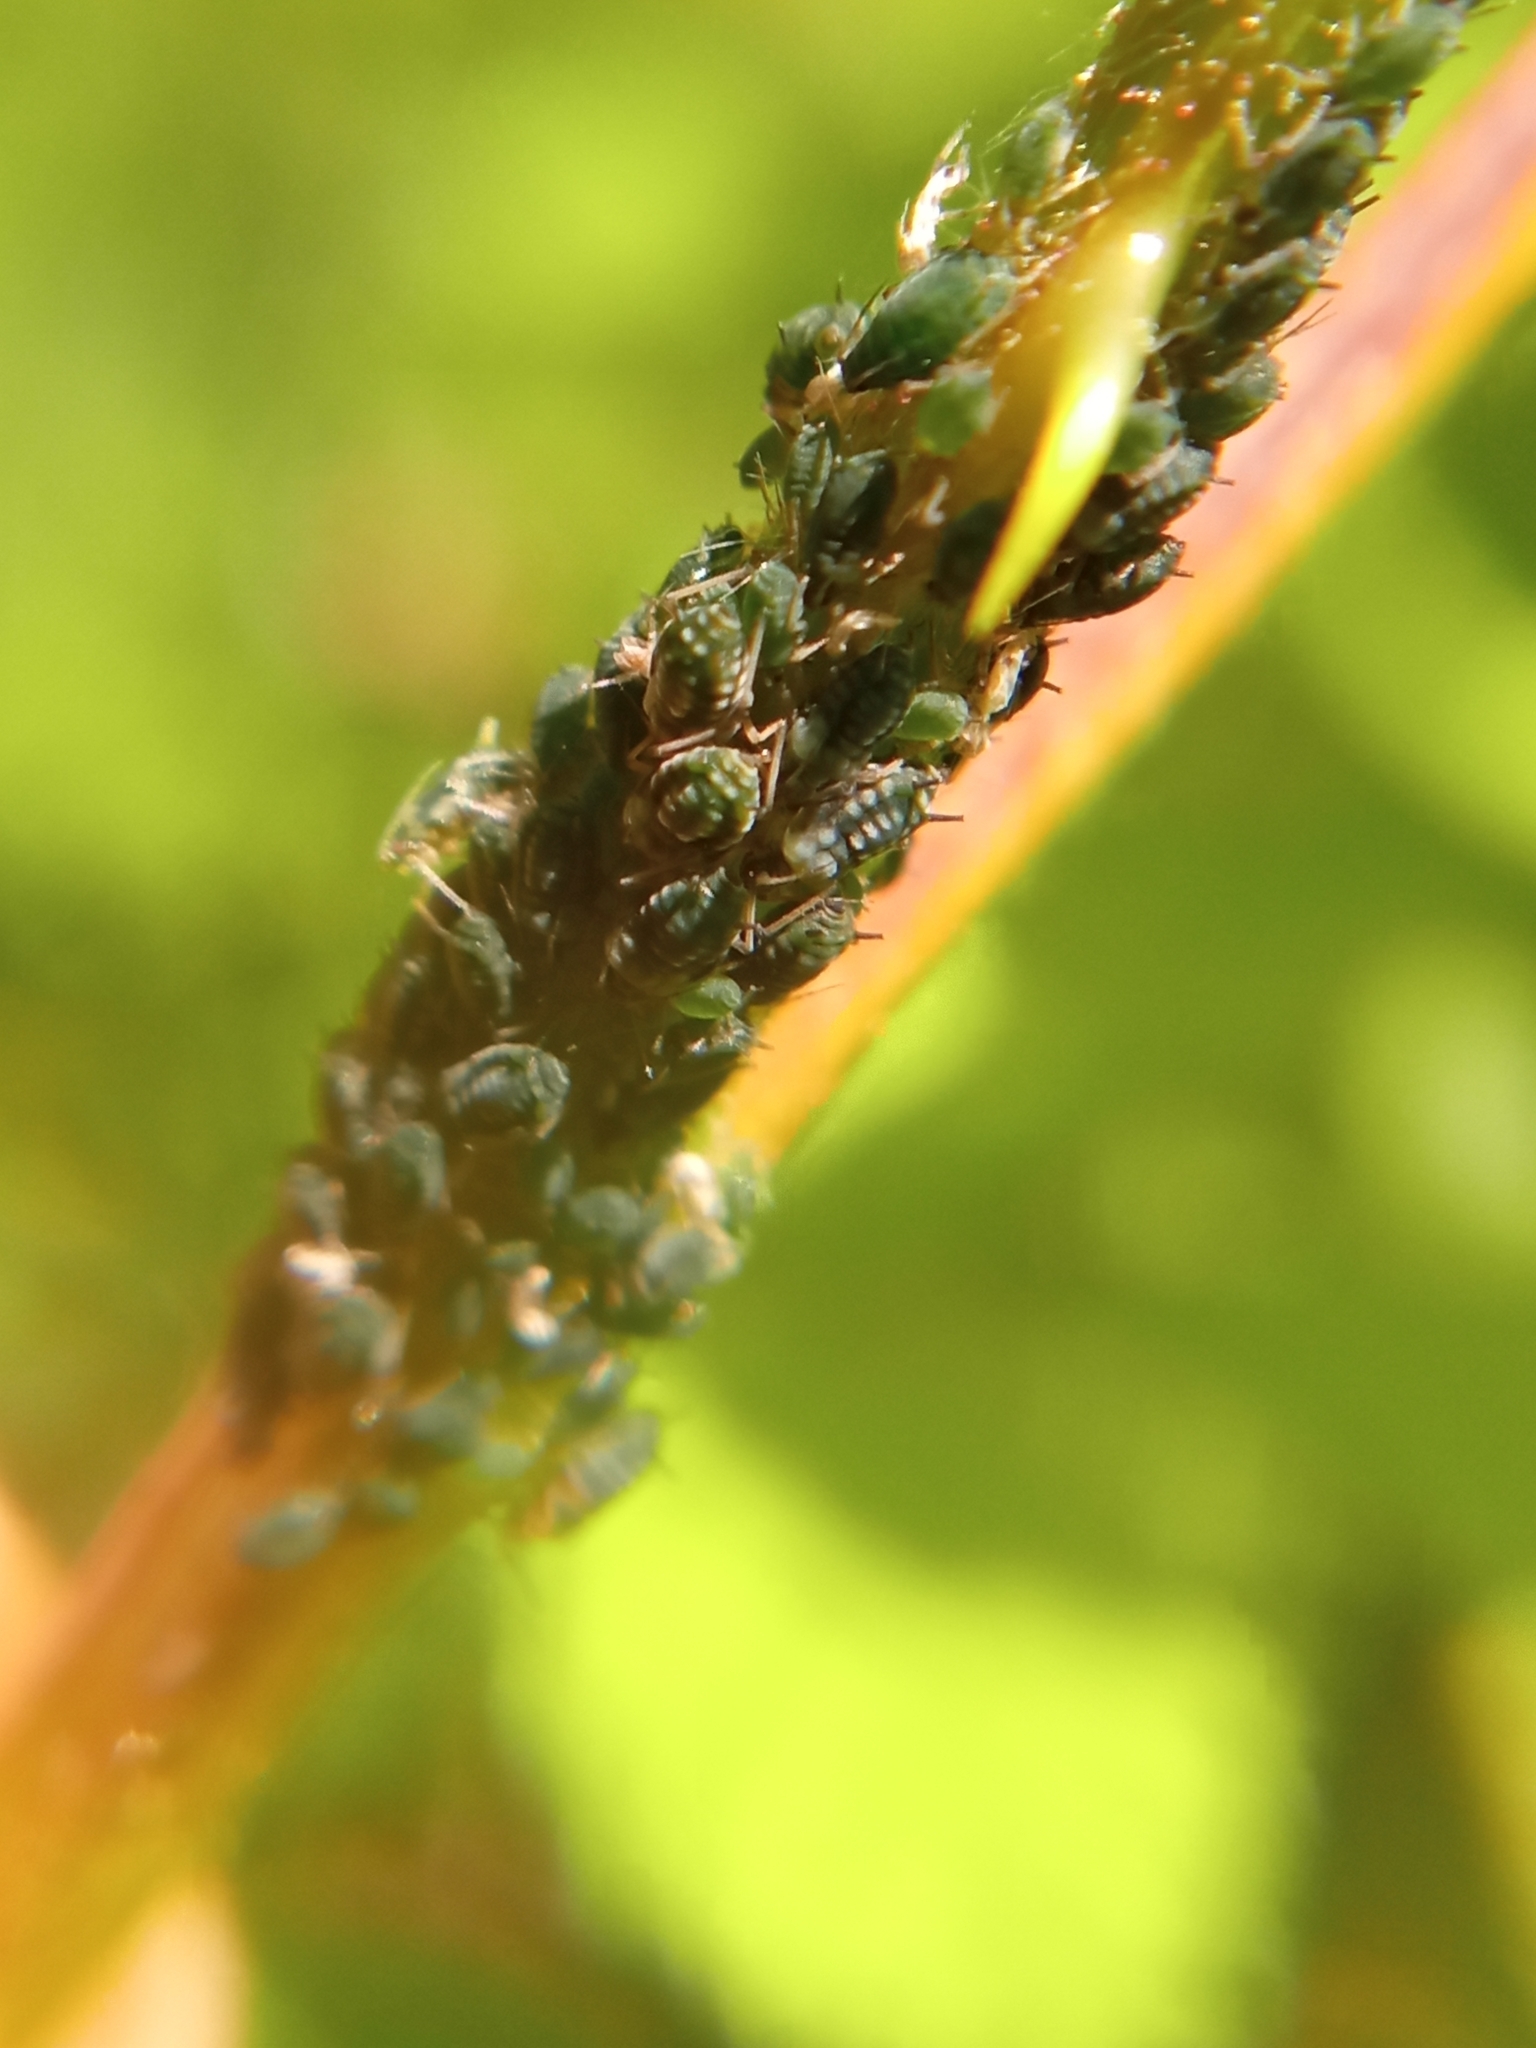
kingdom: Animalia
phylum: Arthropoda
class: Insecta
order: Hemiptera
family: Aphididae
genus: Aphis
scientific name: Aphis ruborum
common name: Aphid
